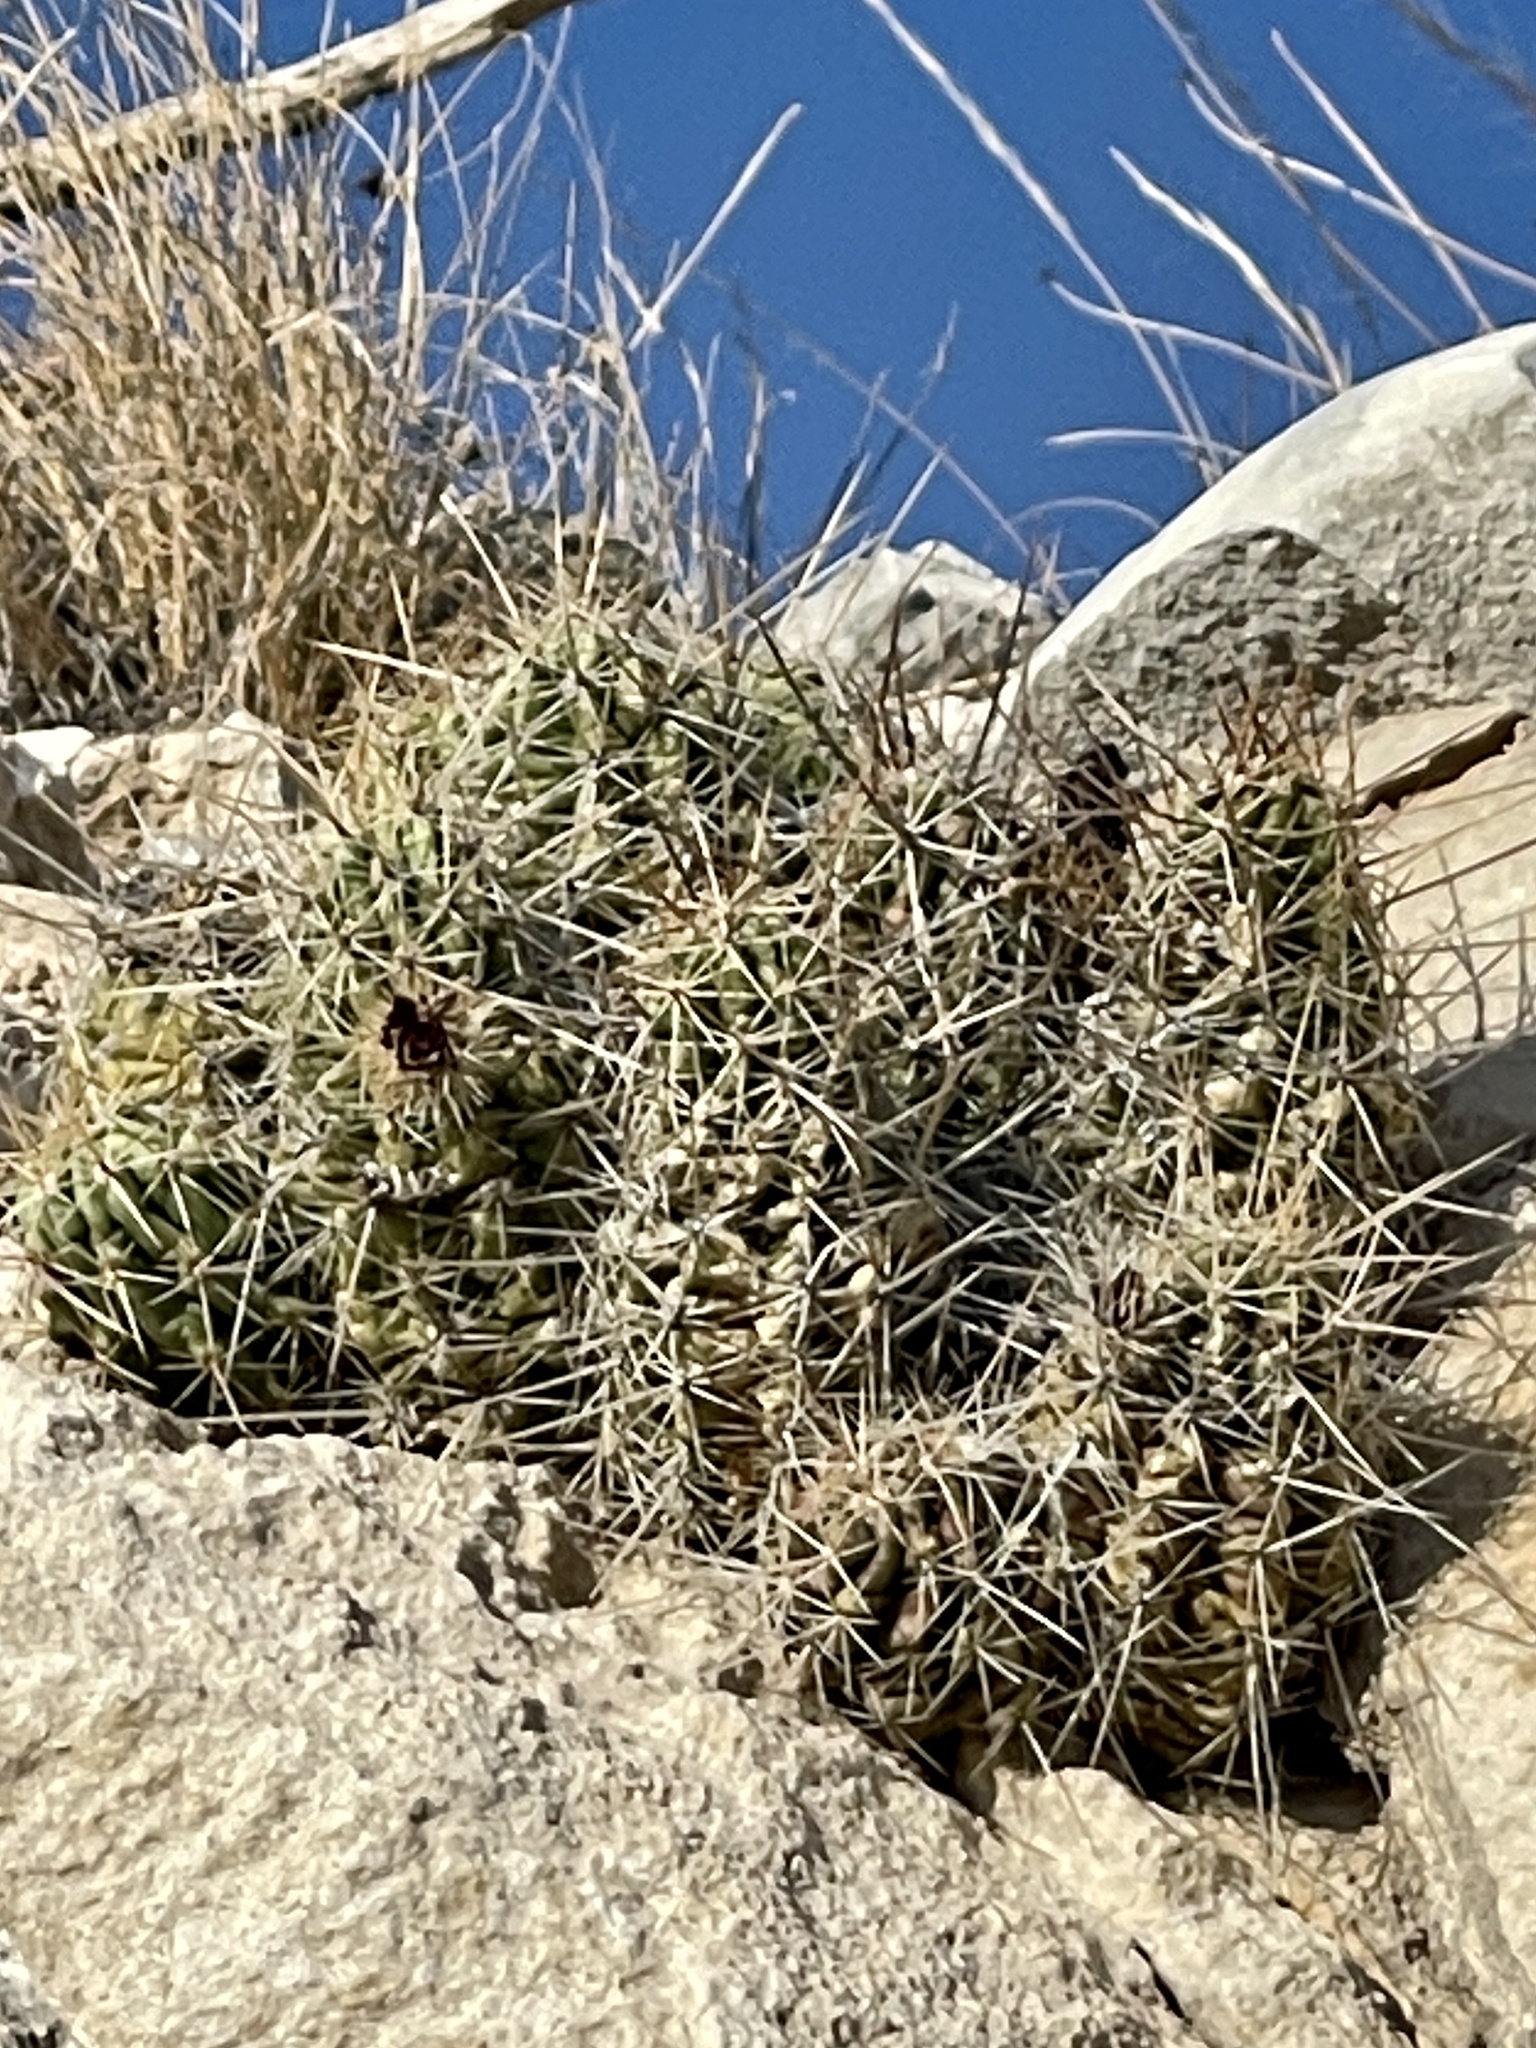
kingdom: Plantae
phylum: Tracheophyta
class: Magnoliopsida
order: Caryophyllales
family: Cactaceae
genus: Echinocereus
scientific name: Echinocereus enneacanthus
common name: Pitaya
